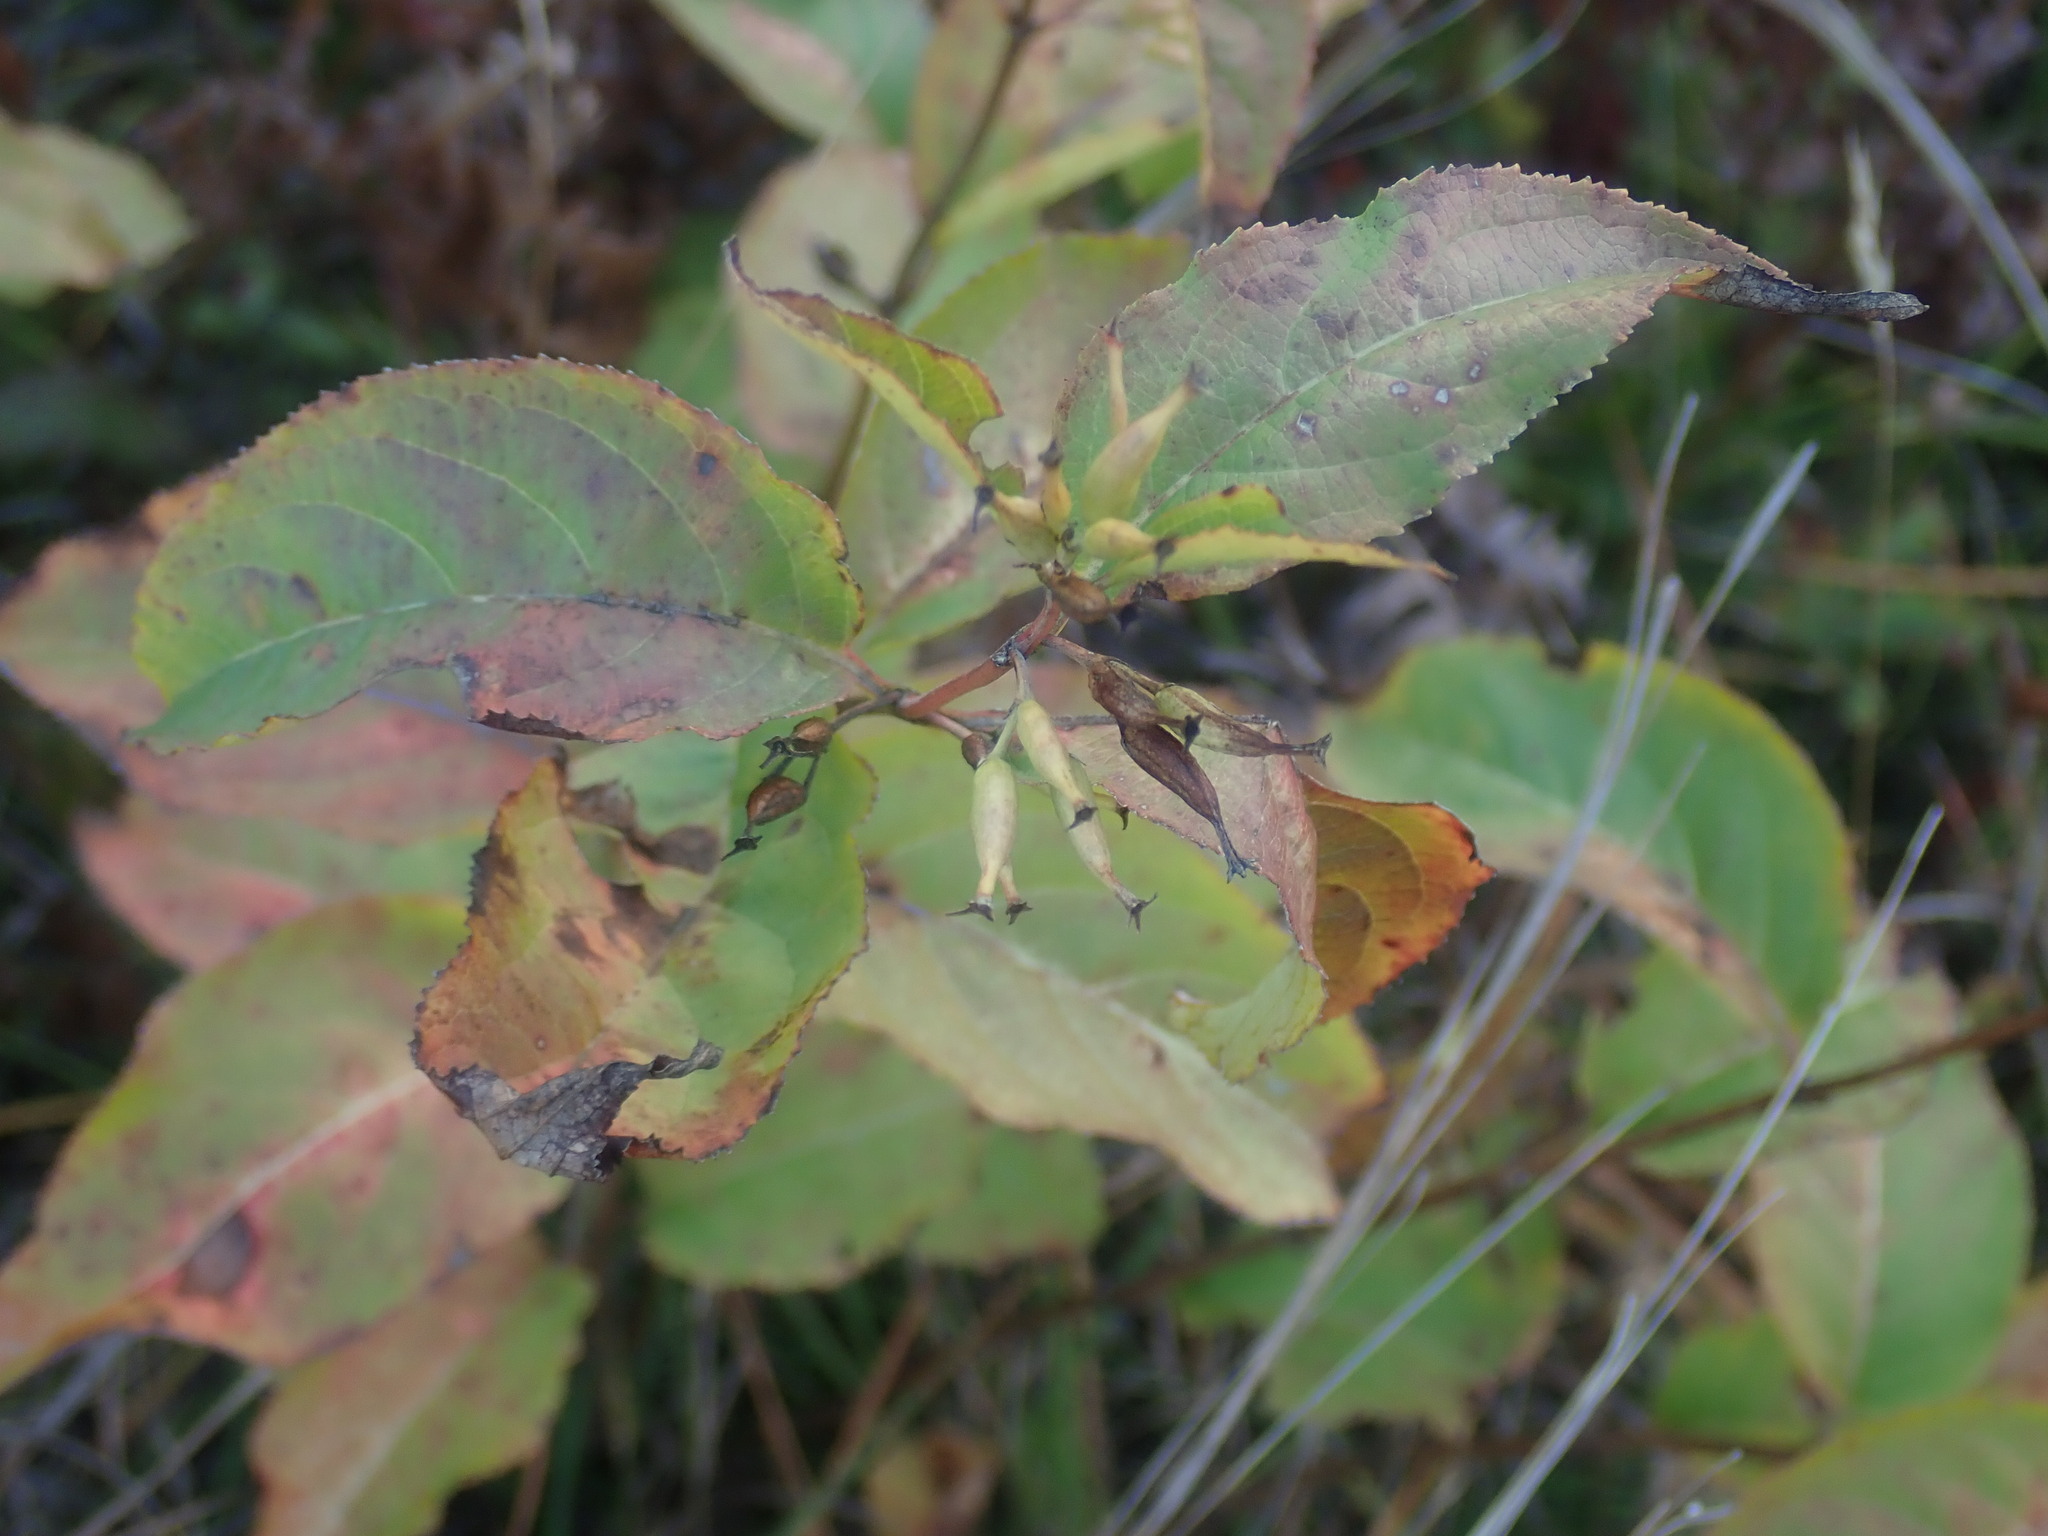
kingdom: Plantae
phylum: Tracheophyta
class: Magnoliopsida
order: Dipsacales
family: Caprifoliaceae
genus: Diervilla
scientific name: Diervilla lonicera
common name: Bush-honeysuckle
